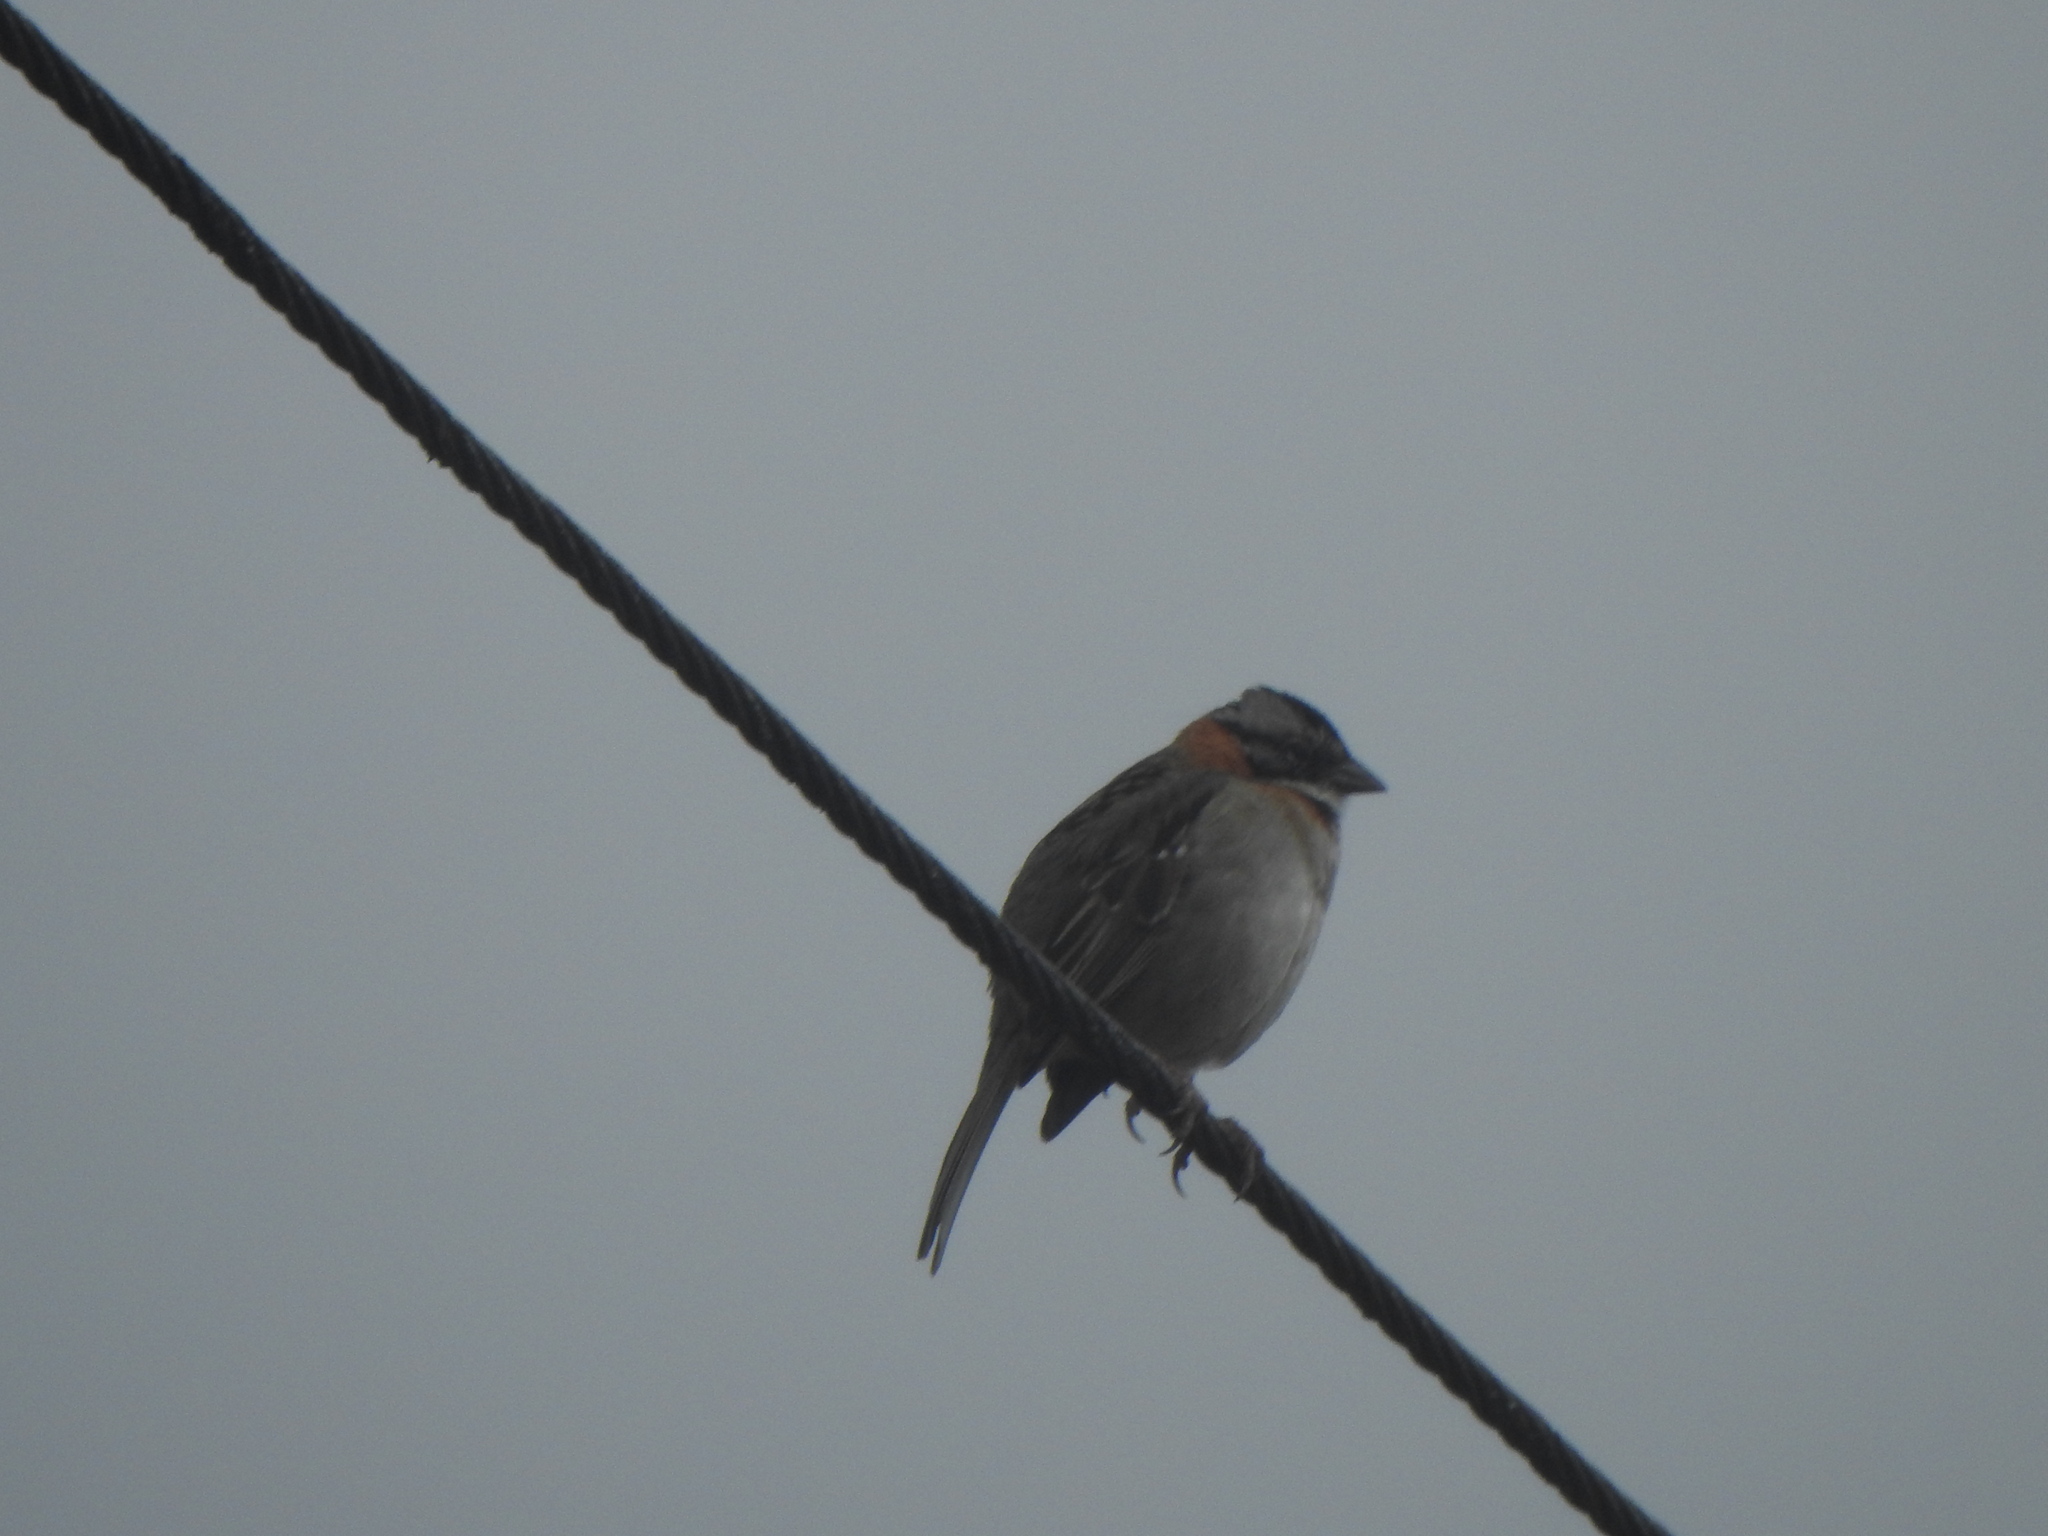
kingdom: Animalia
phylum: Chordata
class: Aves
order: Passeriformes
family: Passerellidae
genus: Zonotrichia
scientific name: Zonotrichia capensis
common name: Rufous-collared sparrow
